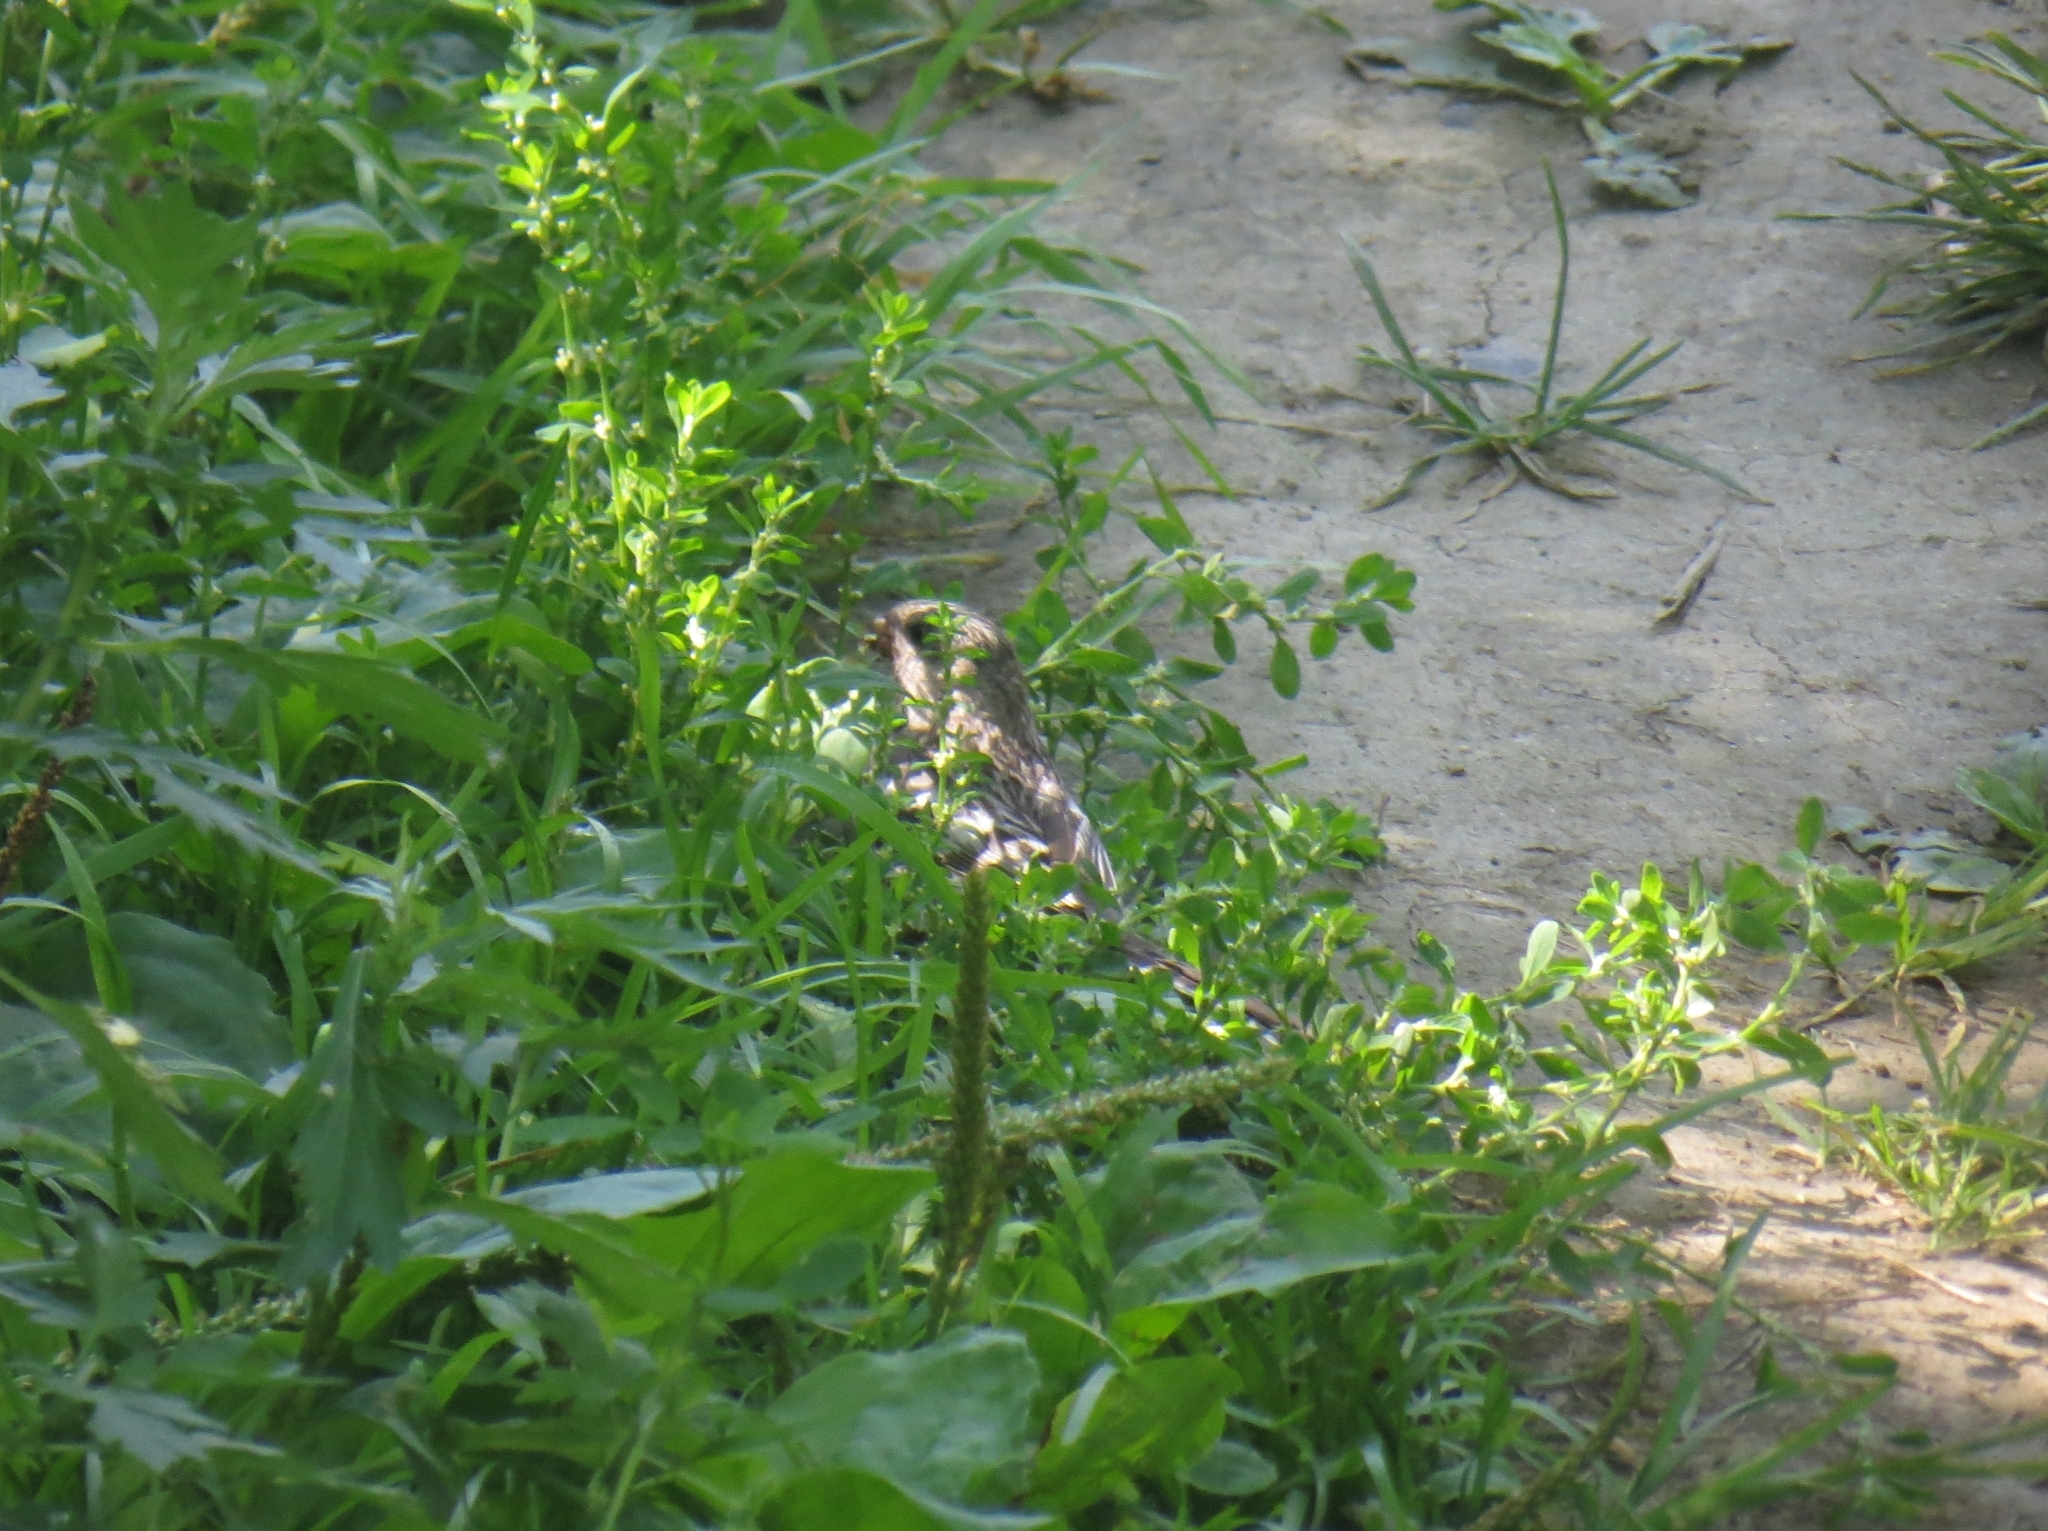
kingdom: Animalia
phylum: Chordata
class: Aves
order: Passeriformes
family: Fringillidae
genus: Carpodacus
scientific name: Carpodacus sibiricus
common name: Long-tailed rosefinch
